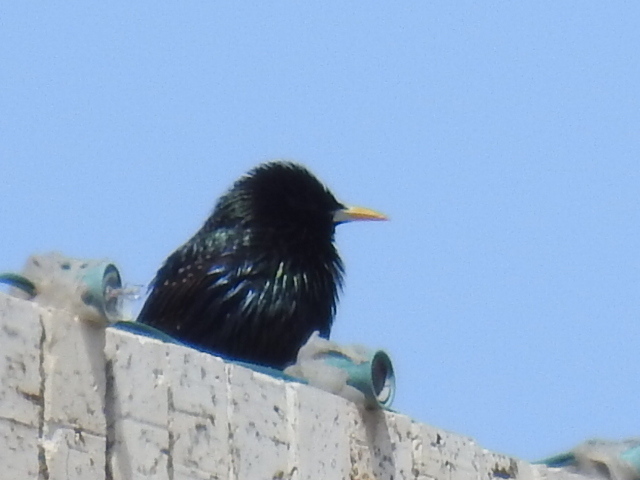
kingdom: Animalia
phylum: Chordata
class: Aves
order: Passeriformes
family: Sturnidae
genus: Sturnus
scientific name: Sturnus vulgaris
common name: Common starling
